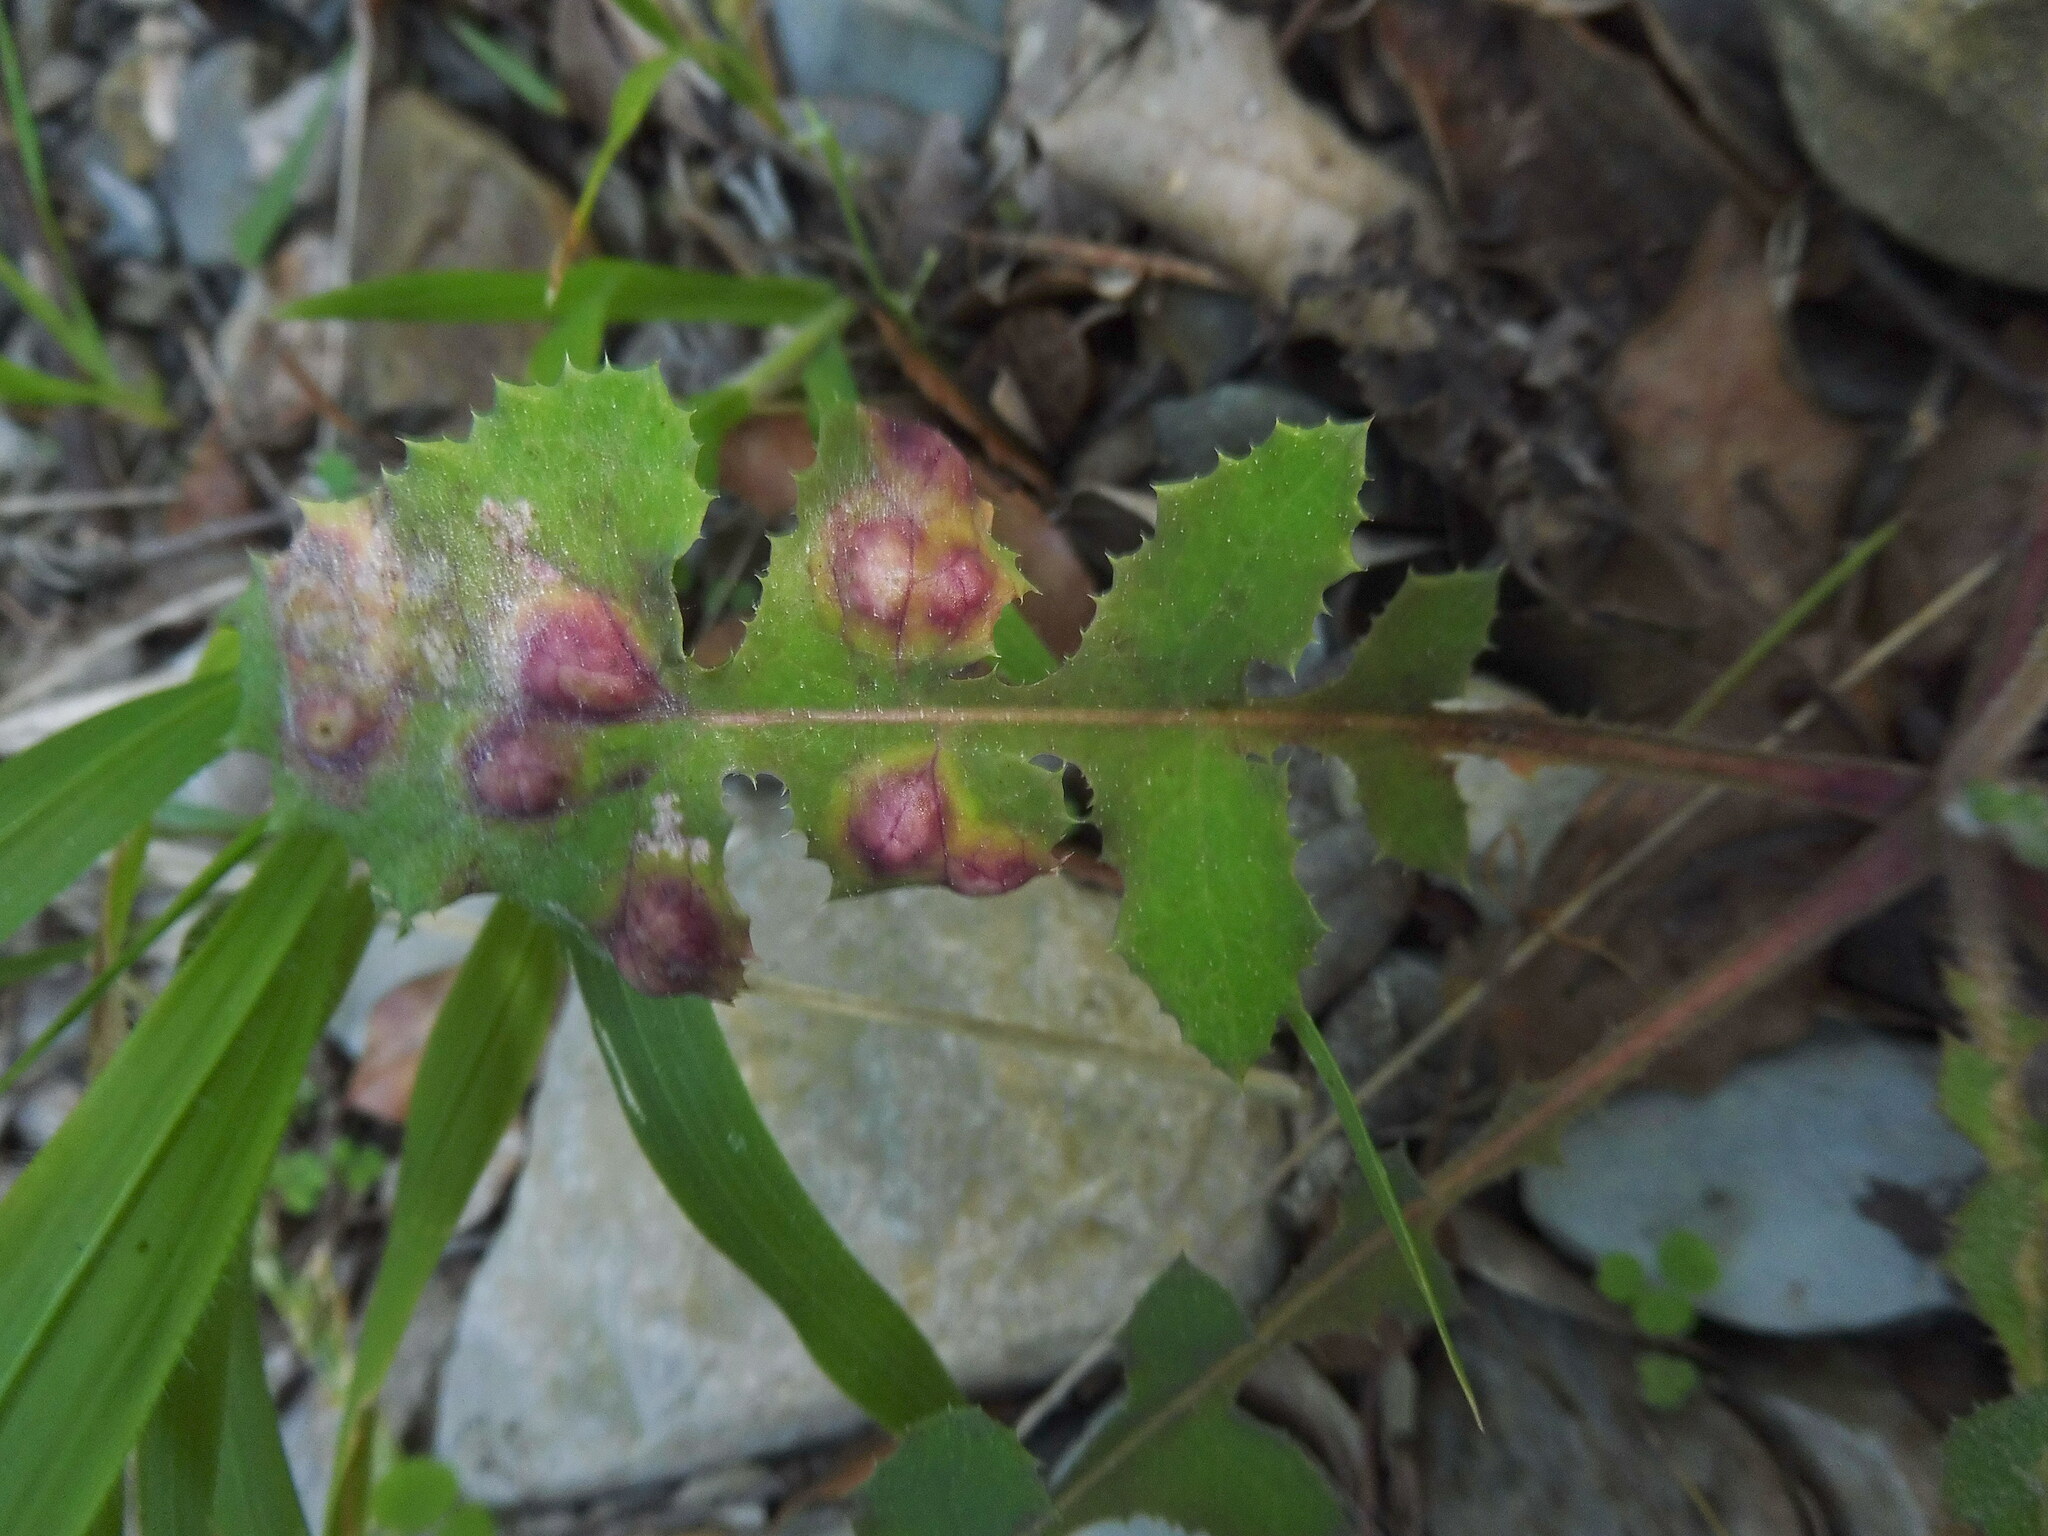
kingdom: Animalia
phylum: Arthropoda
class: Insecta
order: Diptera
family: Cecidomyiidae
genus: Cystiphora
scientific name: Cystiphora sonchi
